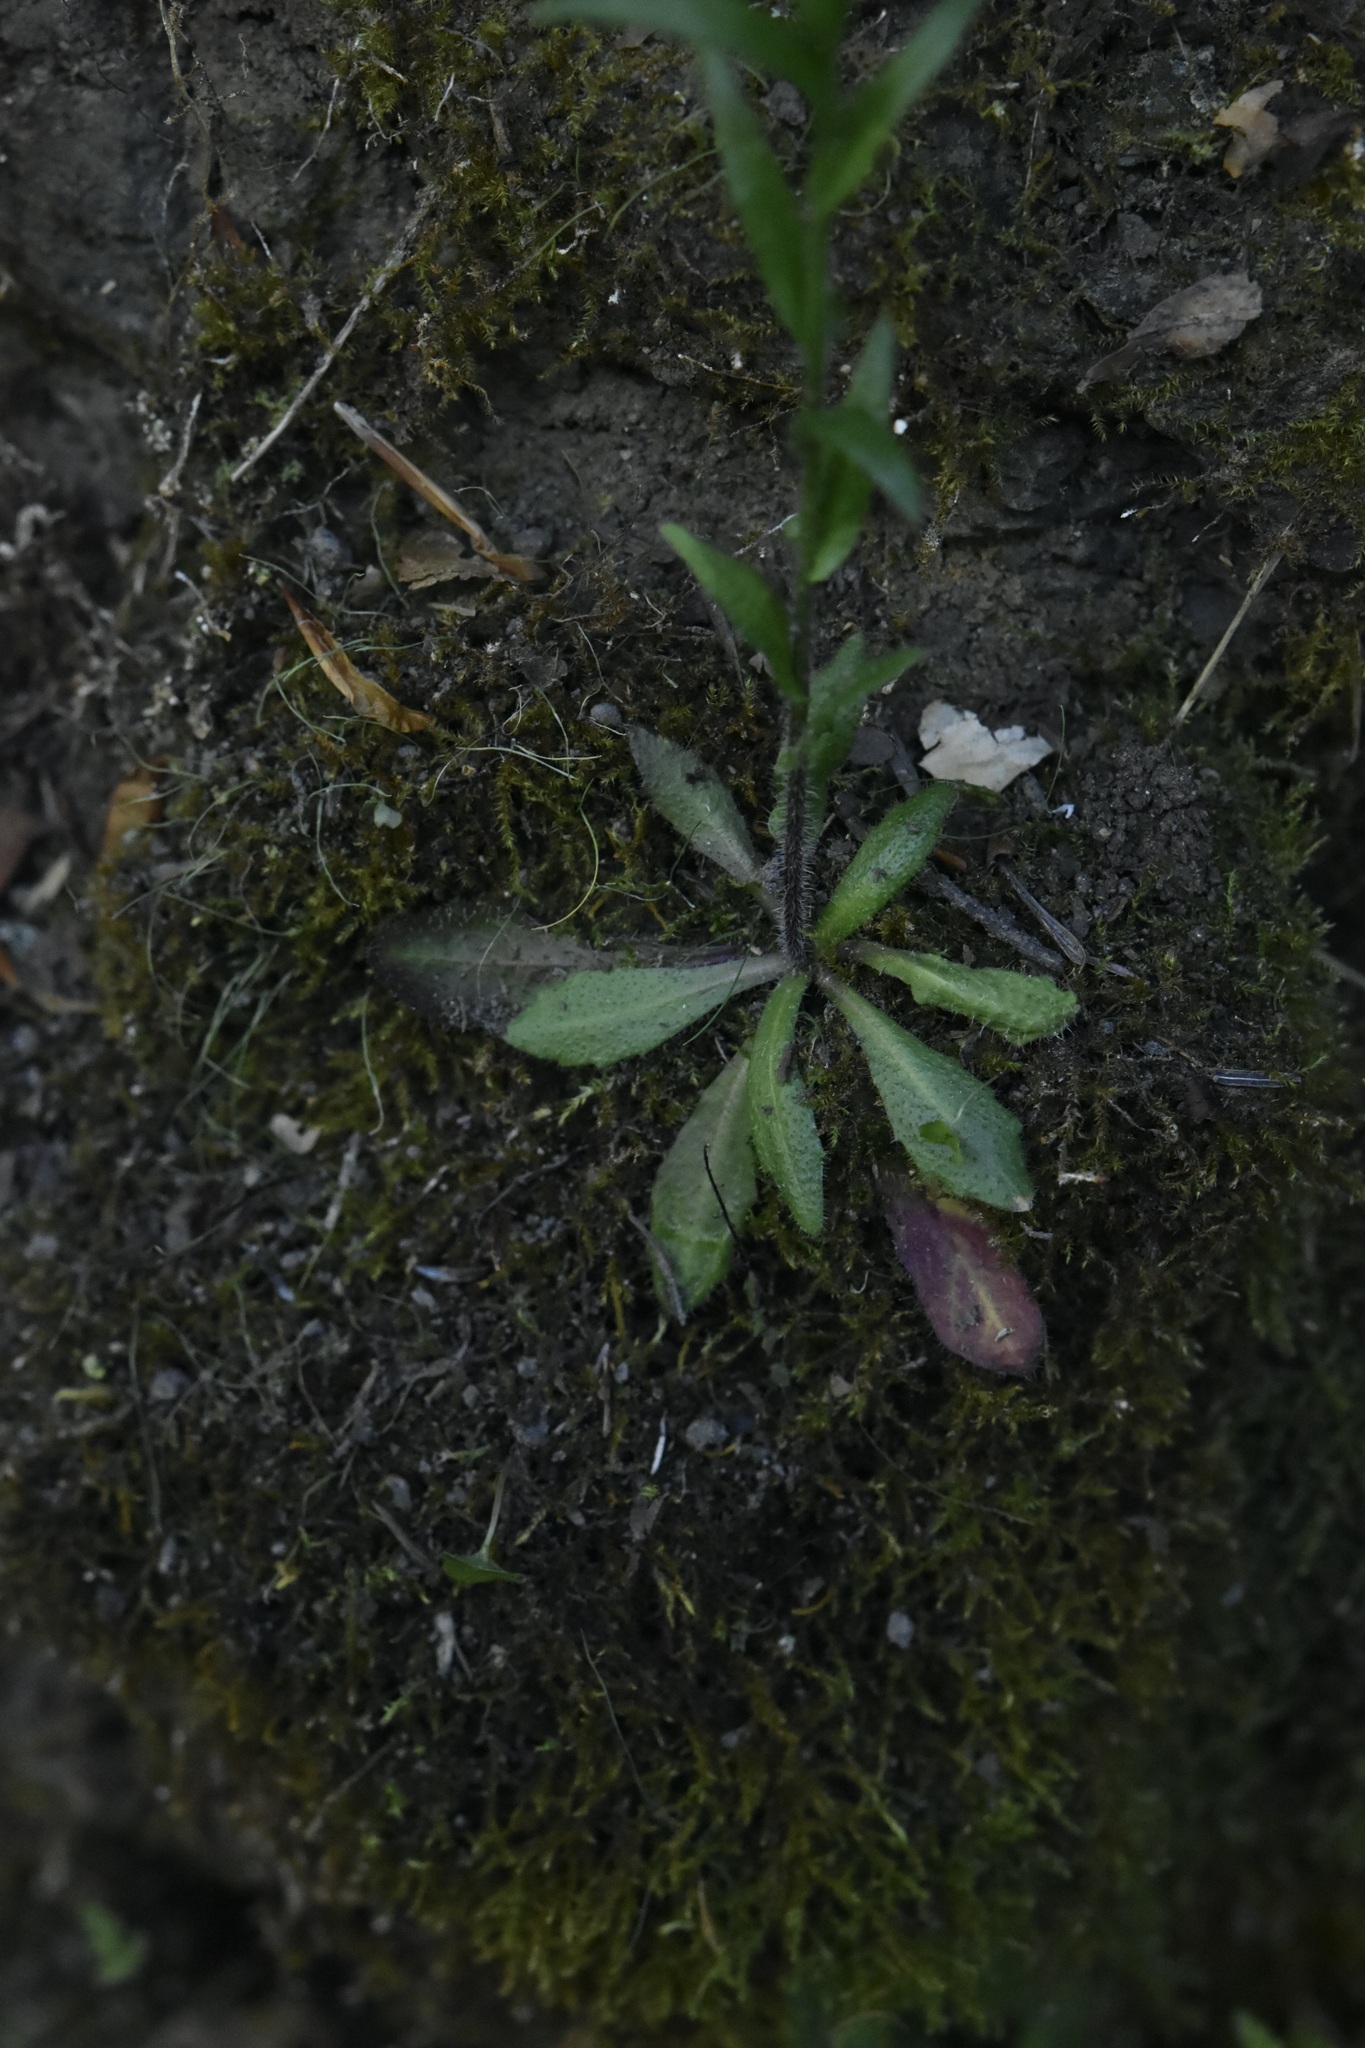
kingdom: Plantae
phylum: Tracheophyta
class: Magnoliopsida
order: Brassicales
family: Brassicaceae
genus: Arabis
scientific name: Arabis pycnocarpa
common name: Blushing rockcress
